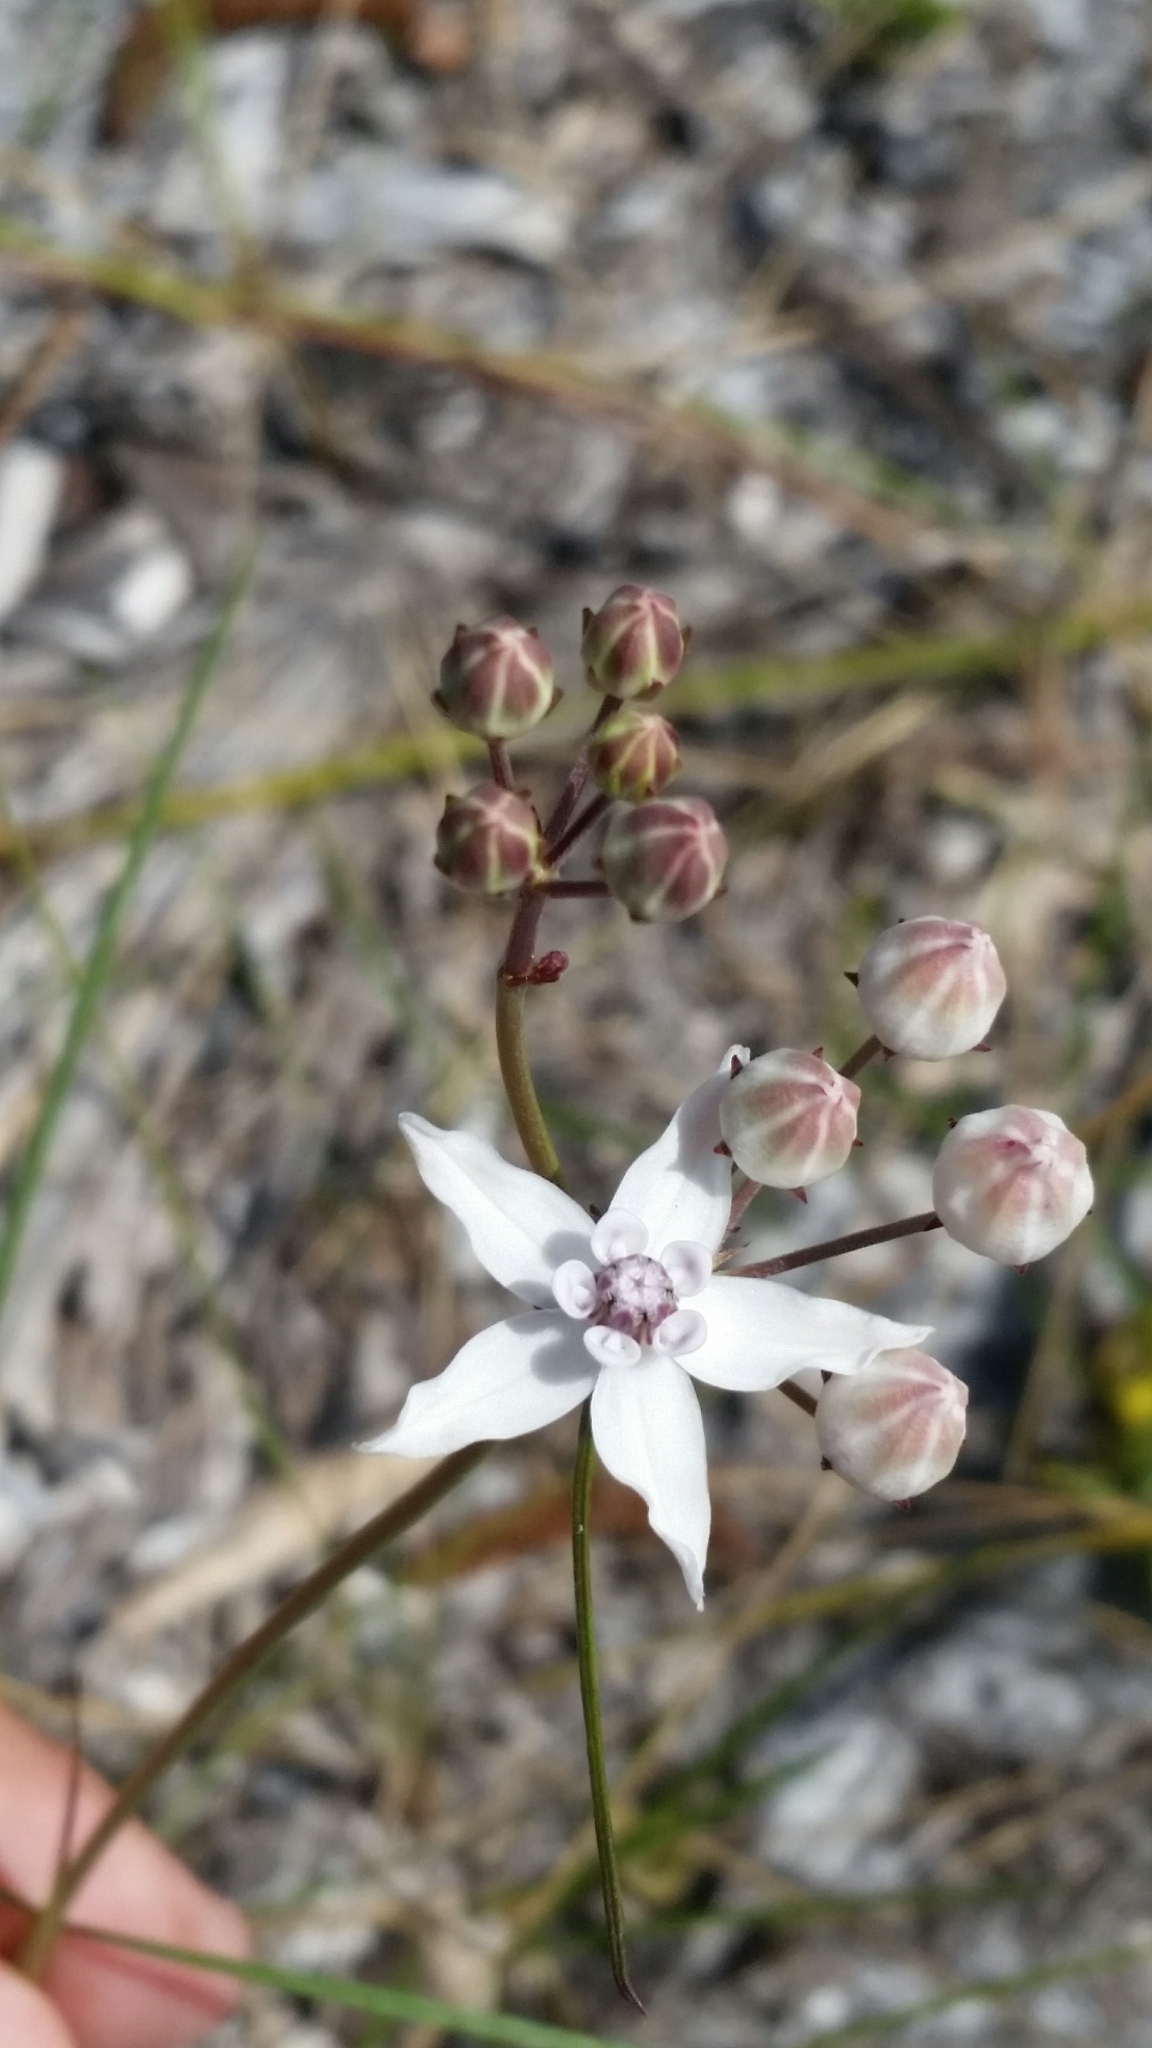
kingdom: Plantae
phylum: Tracheophyta
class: Magnoliopsida
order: Gentianales
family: Apocynaceae
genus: Asclepias
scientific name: Asclepias feayi
